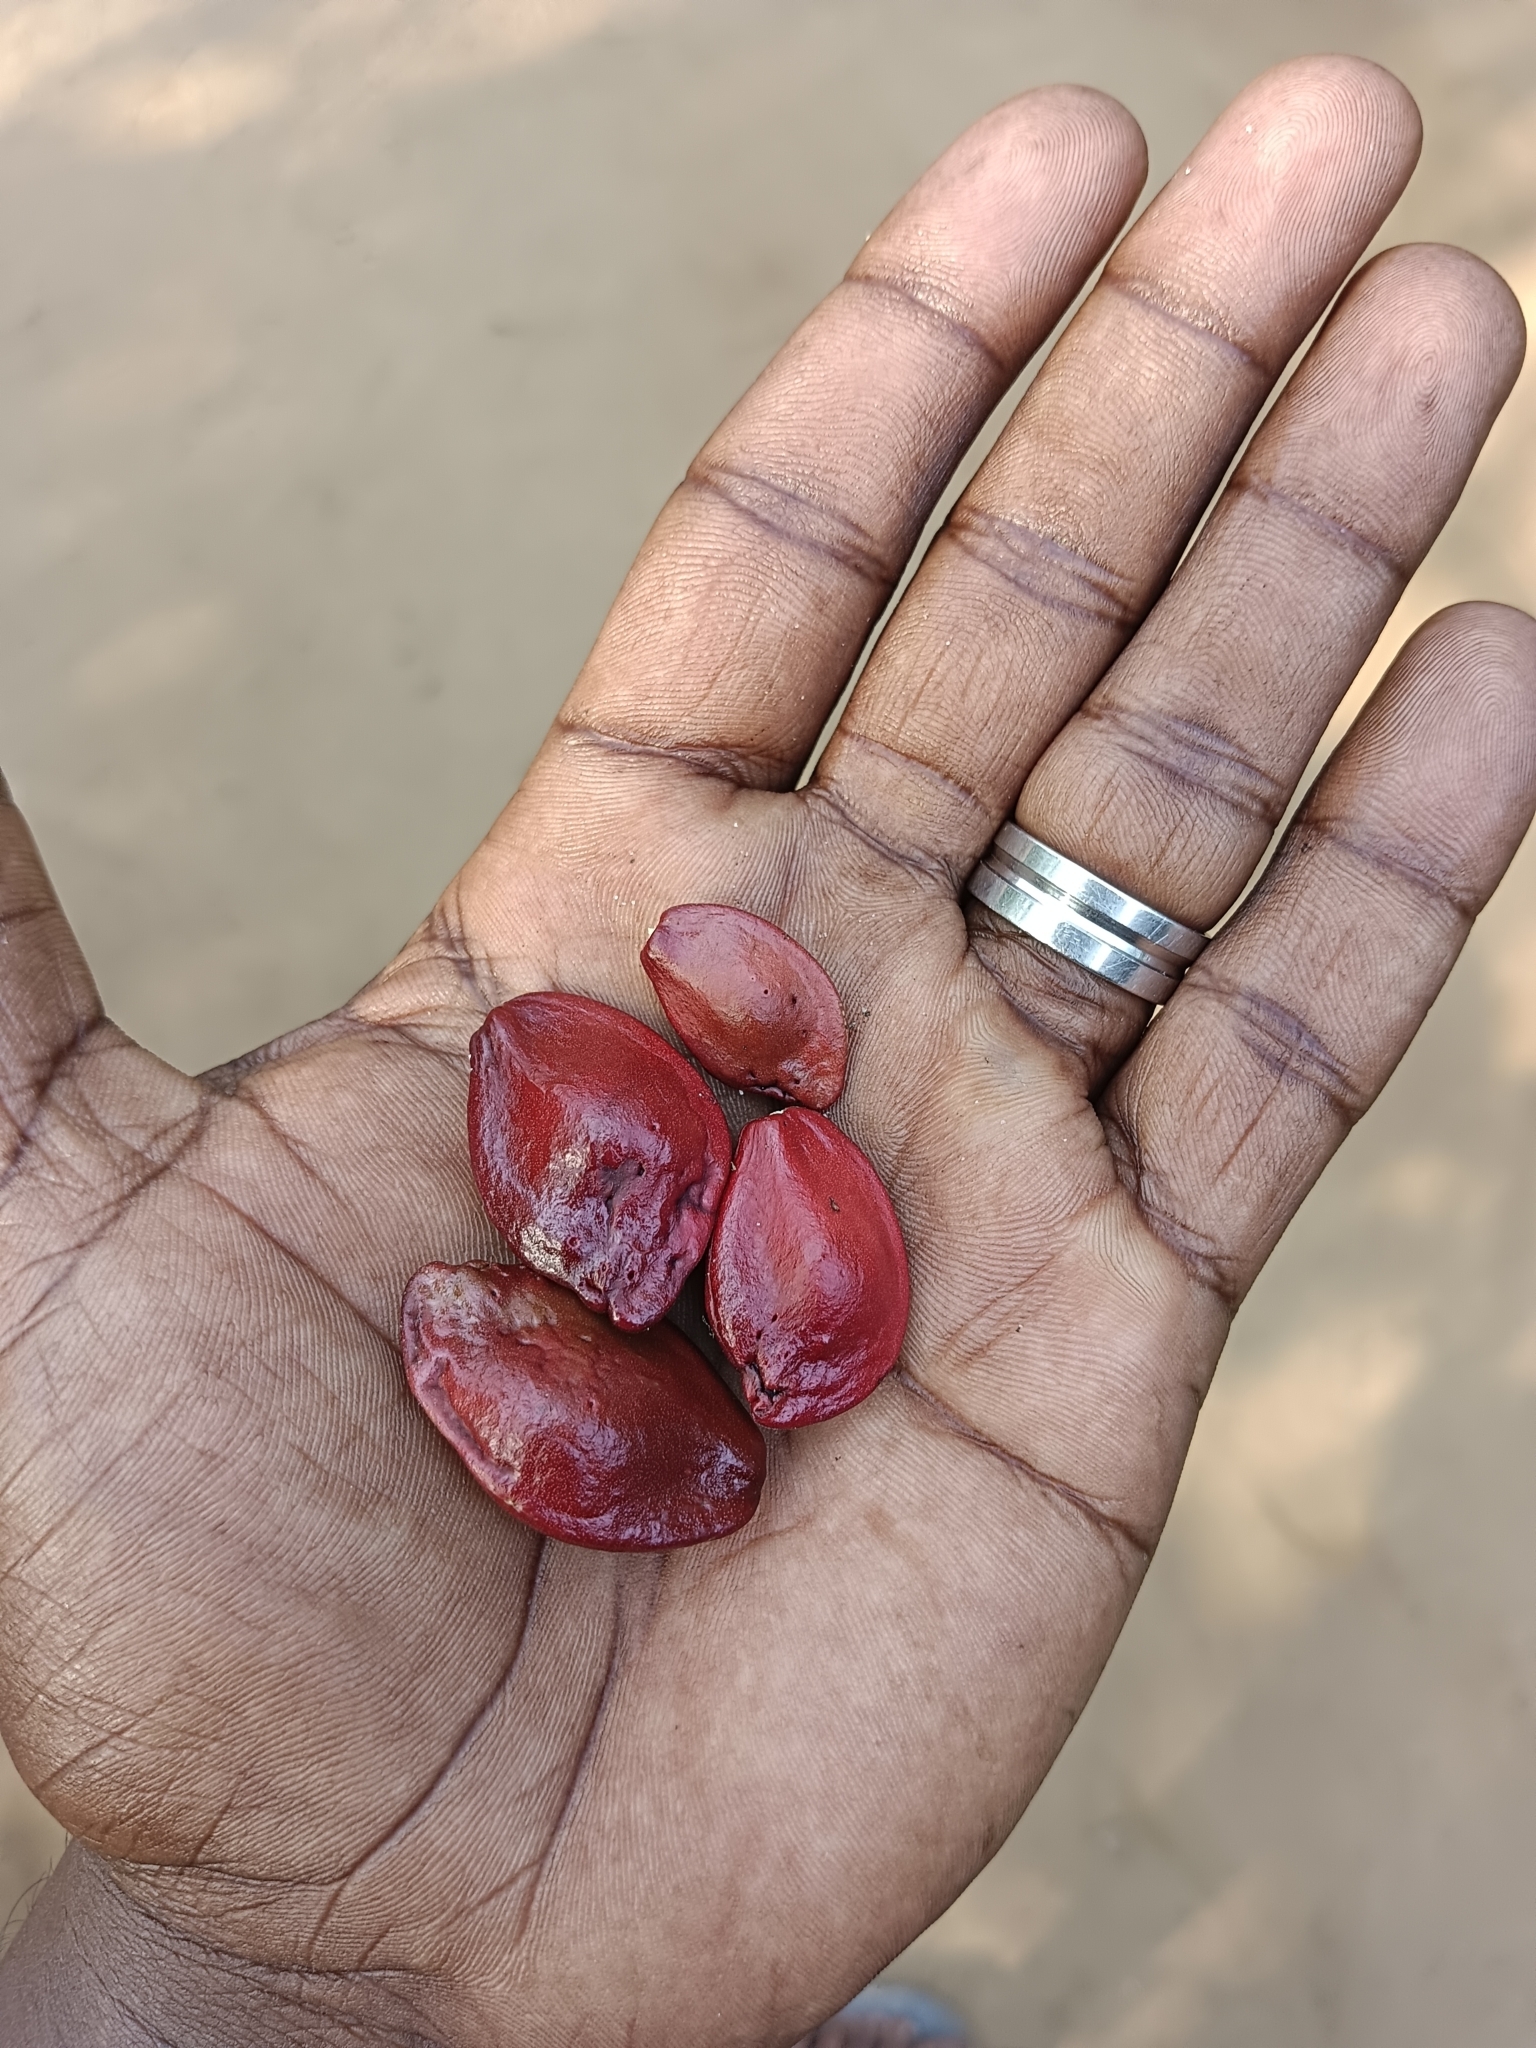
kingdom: Plantae
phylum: Tracheophyta
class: Magnoliopsida
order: Sapindales
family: Simaroubaceae
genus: Samadera
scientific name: Samadera indica
